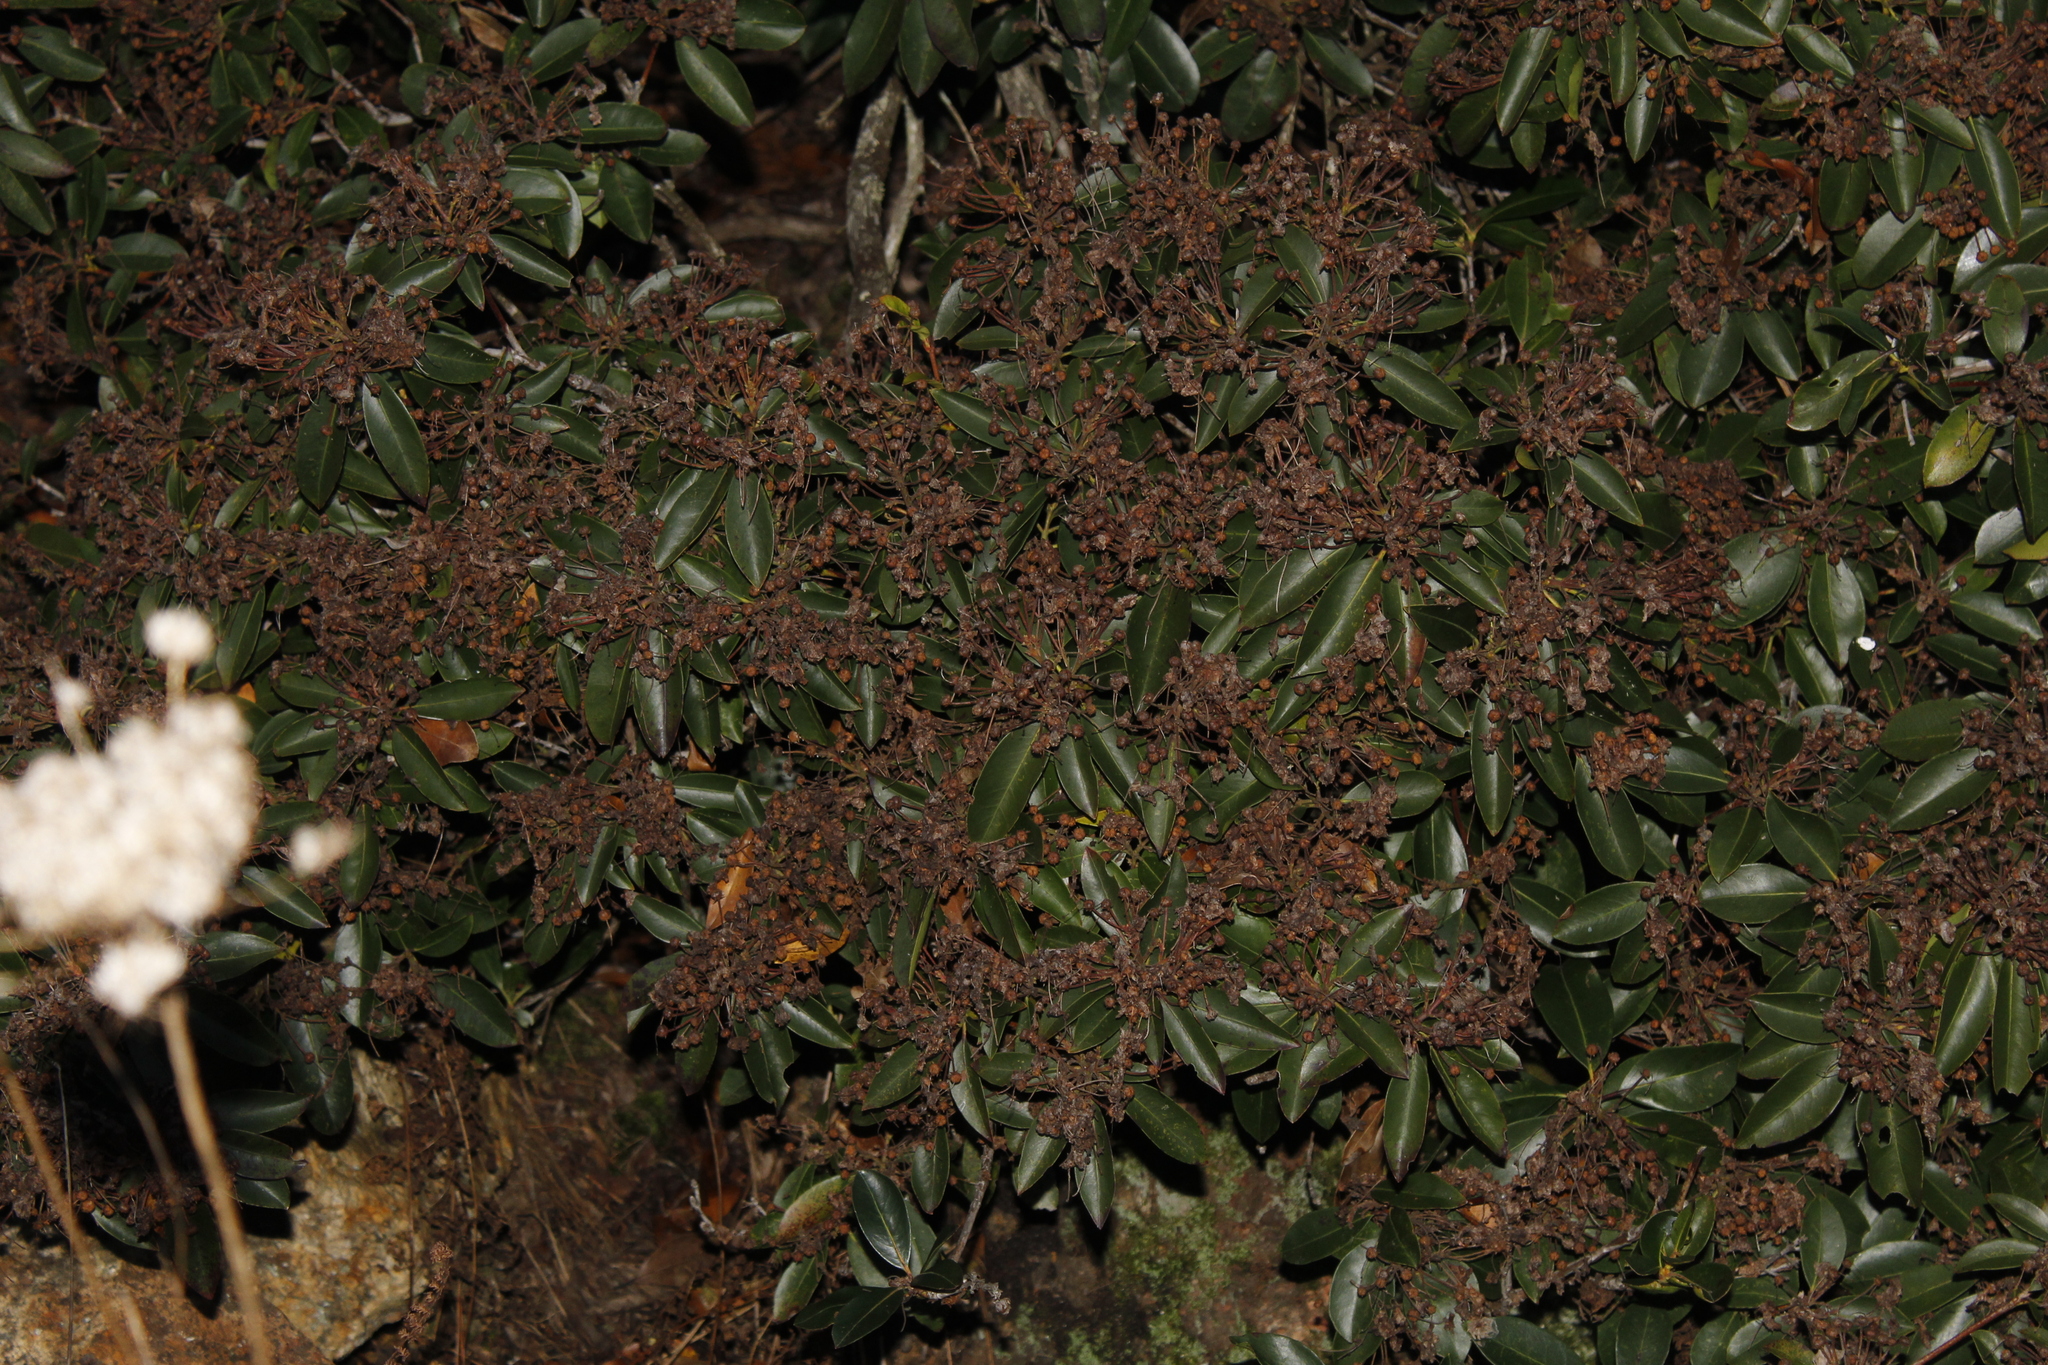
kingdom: Plantae
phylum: Tracheophyta
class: Magnoliopsida
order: Ericales
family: Ericaceae
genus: Kalmia
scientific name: Kalmia latifolia
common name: Mountain-laurel
